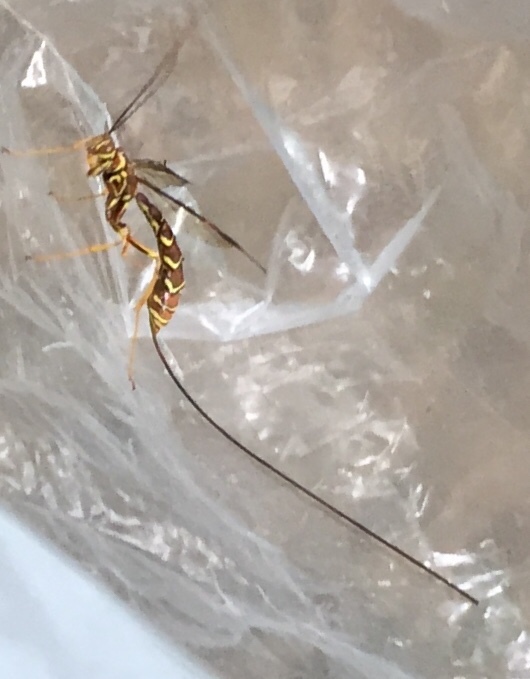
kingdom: Animalia
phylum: Arthropoda
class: Insecta
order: Hymenoptera
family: Ichneumonidae
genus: Megarhyssa
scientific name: Megarhyssa macrura
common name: Long-tailed giant ichneumonid wasp
